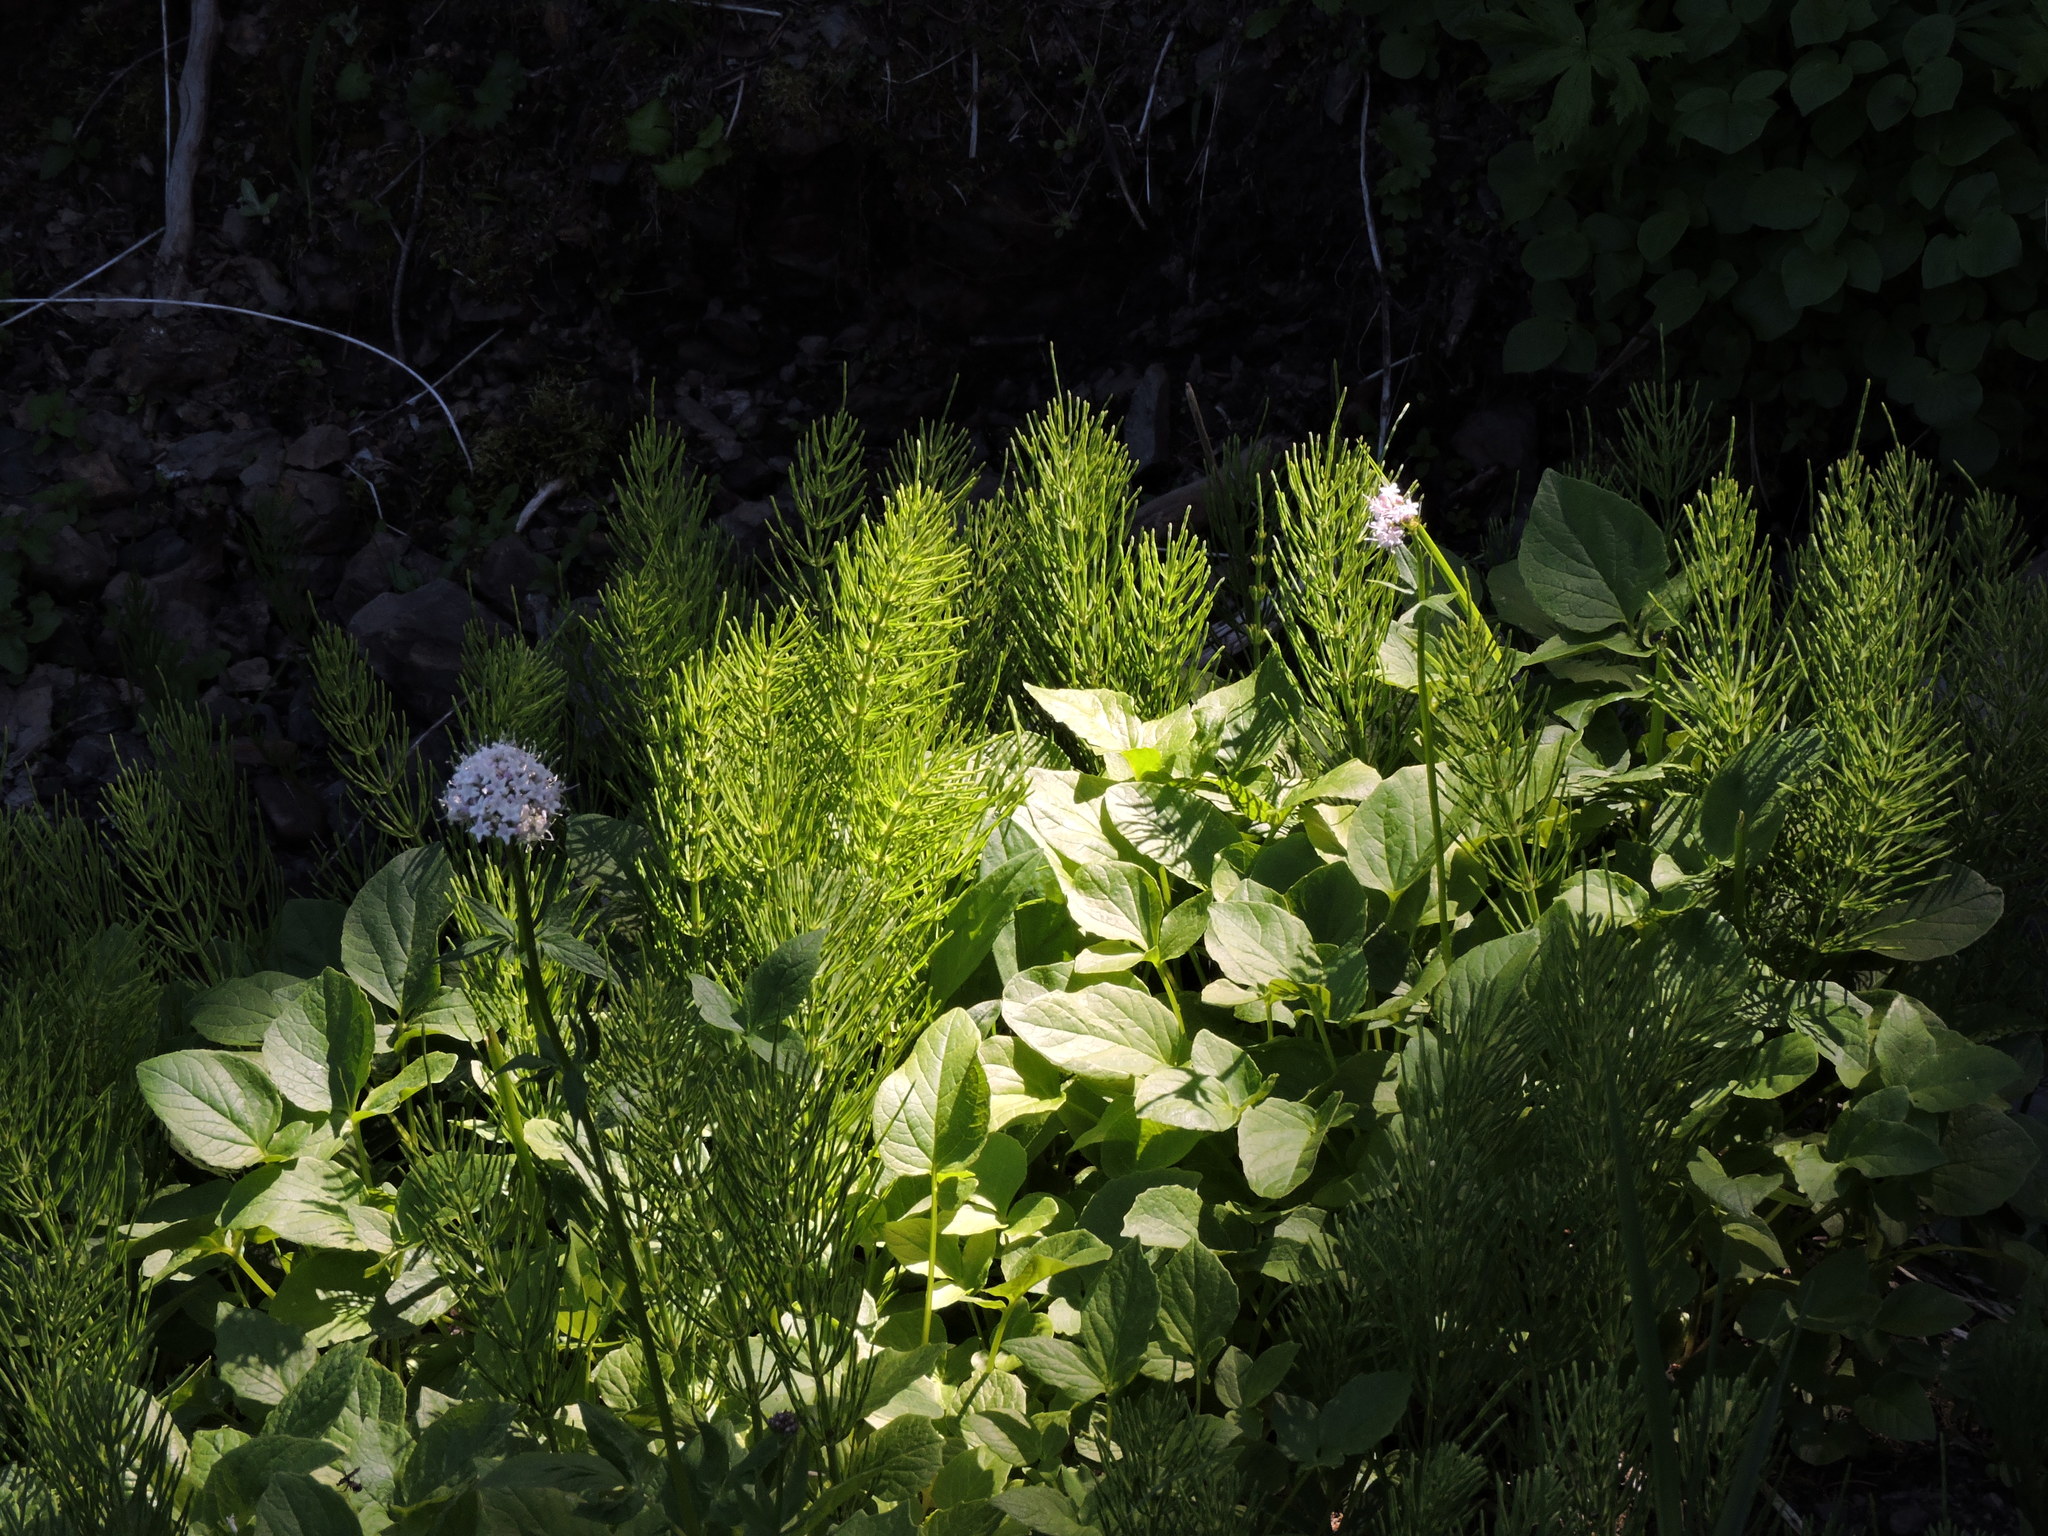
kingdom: Plantae
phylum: Tracheophyta
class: Polypodiopsida
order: Equisetales
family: Equisetaceae
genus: Equisetum
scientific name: Equisetum arvense
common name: Field horsetail
